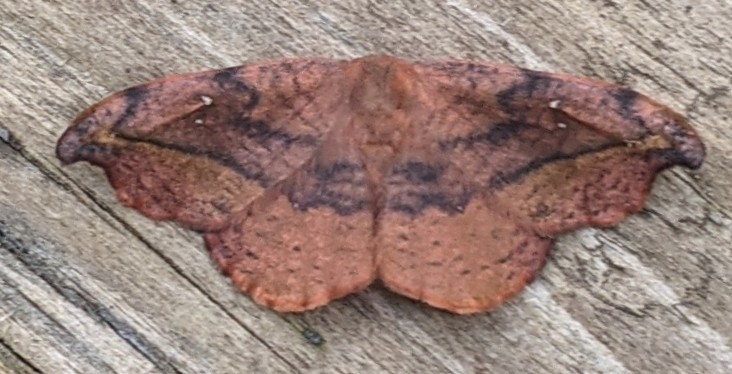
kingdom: Animalia
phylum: Arthropoda
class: Insecta
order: Lepidoptera
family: Drepanidae
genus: Oreta
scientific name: Oreta rosea
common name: Rose hooktip
